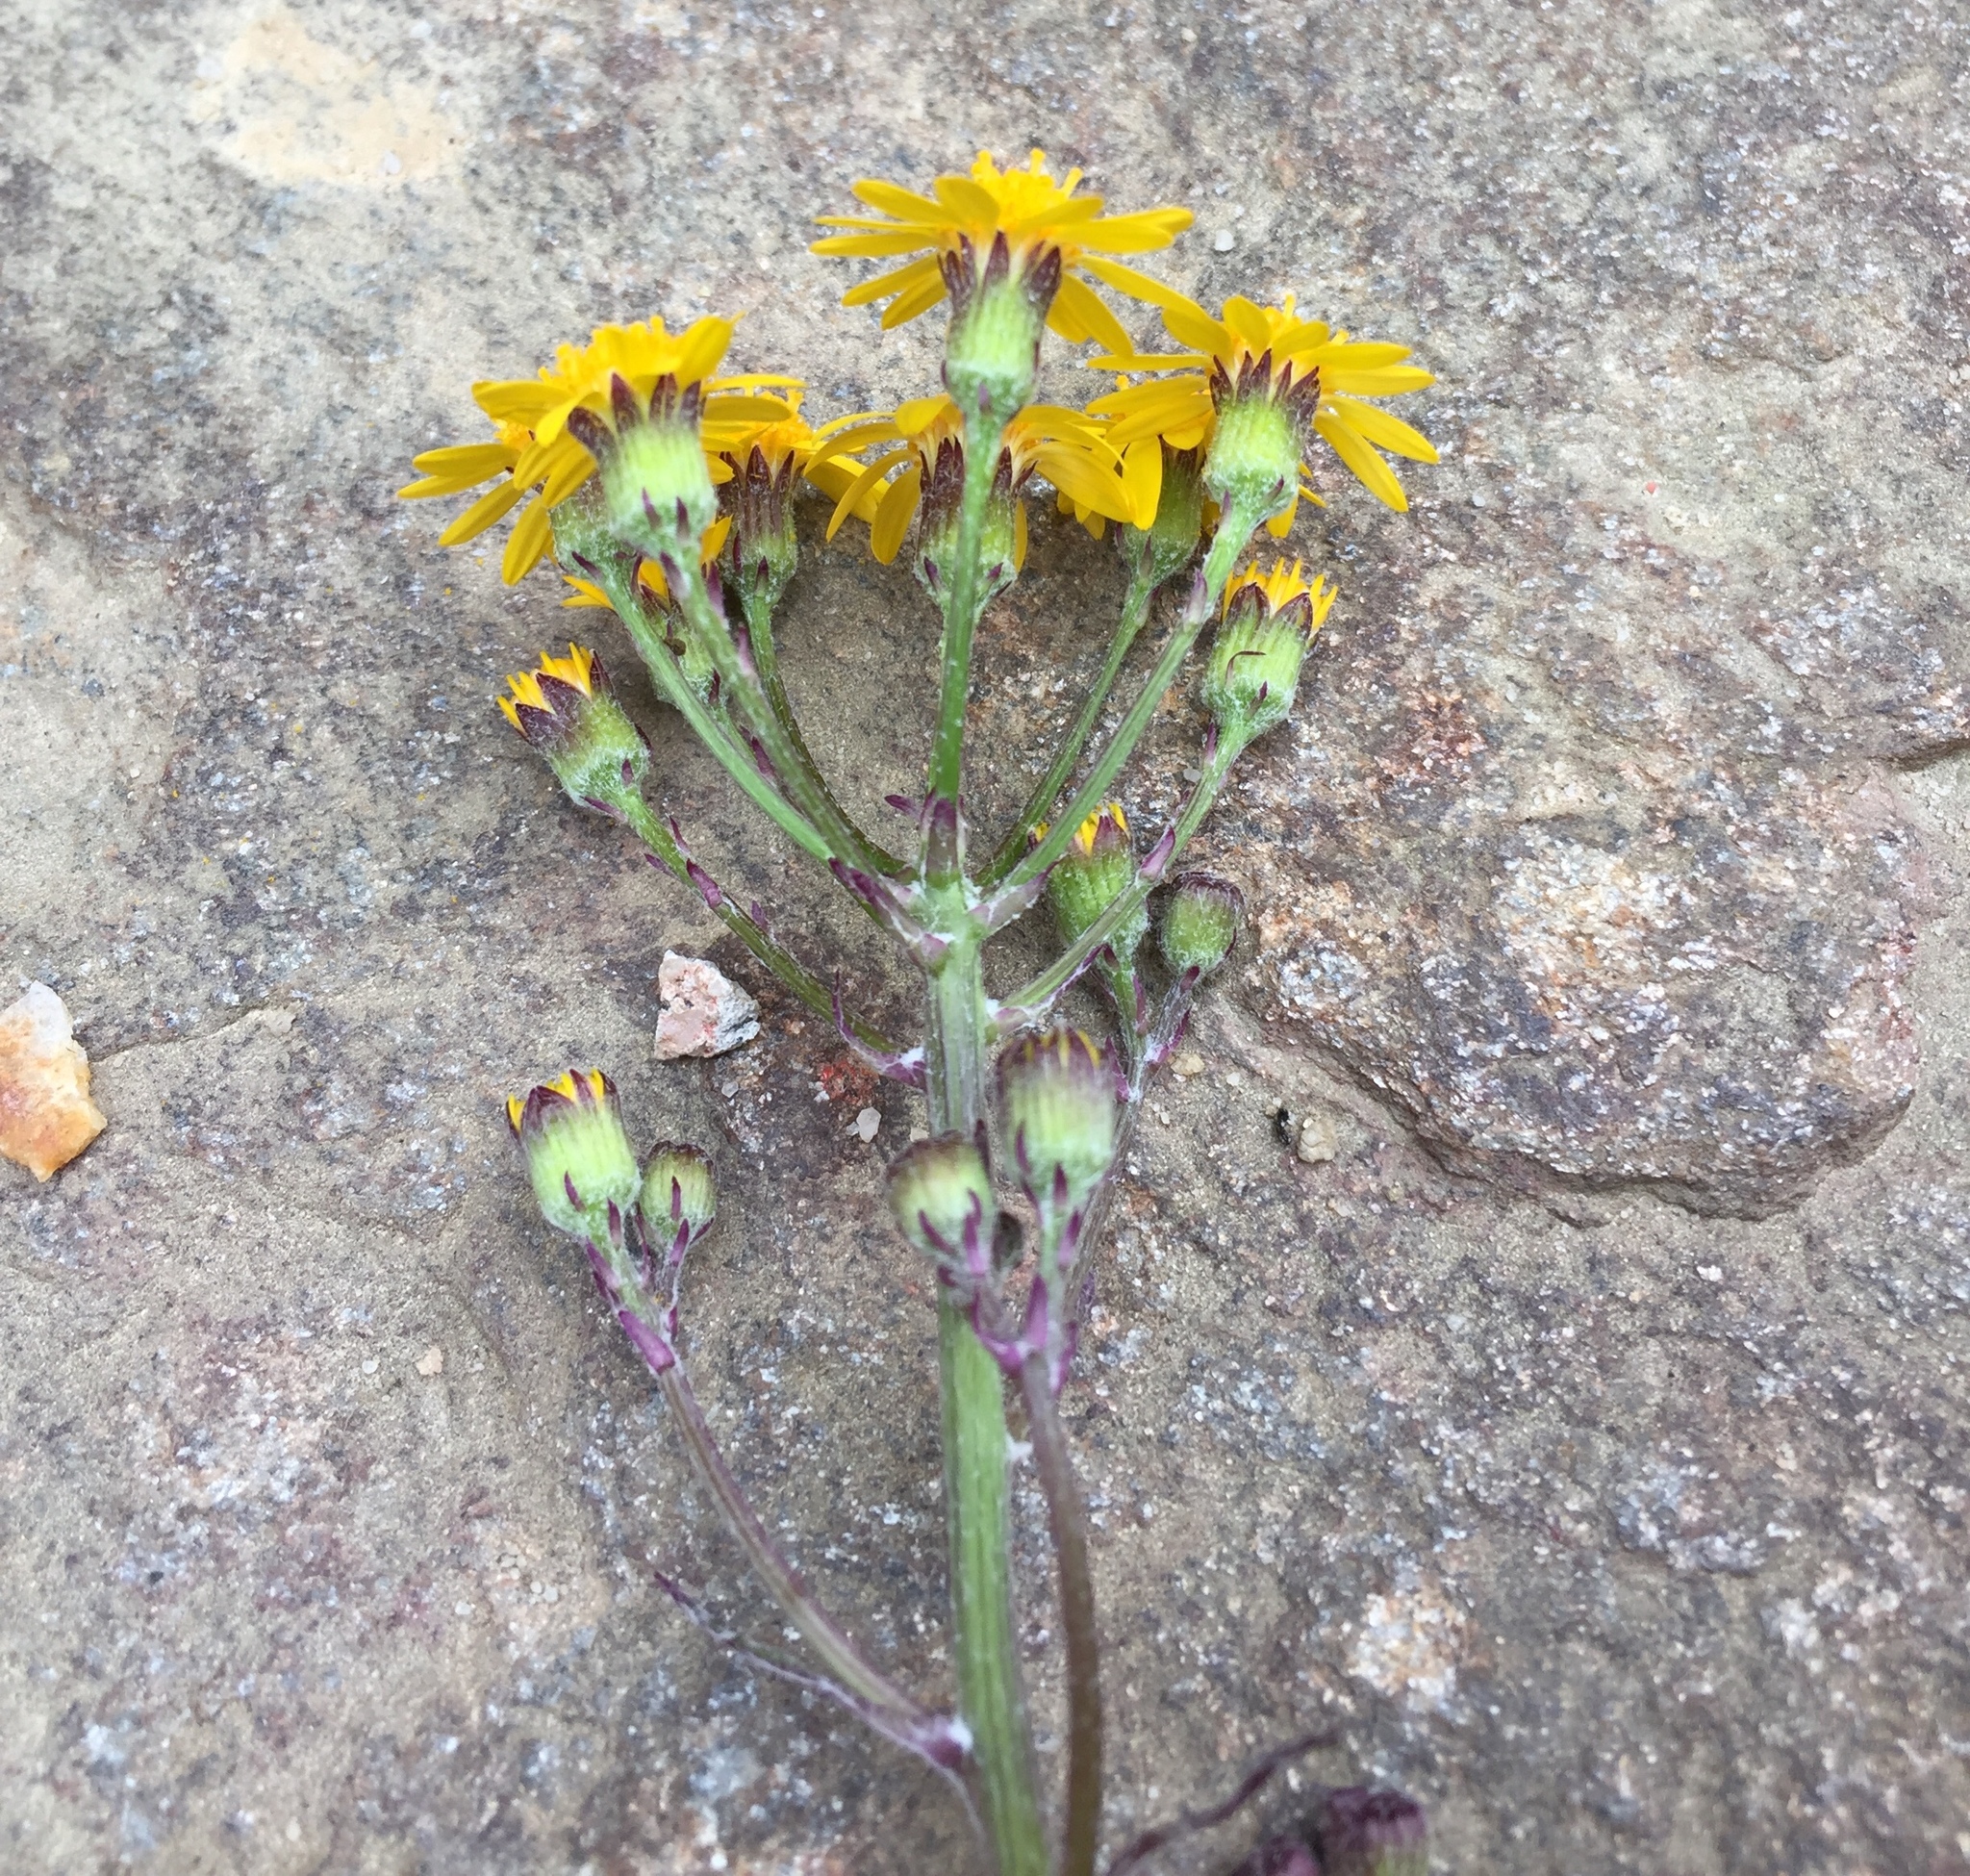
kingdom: Plantae
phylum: Tracheophyta
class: Magnoliopsida
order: Asterales
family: Asteraceae
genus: Packera
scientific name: Packera aurea
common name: Golden groundsel
